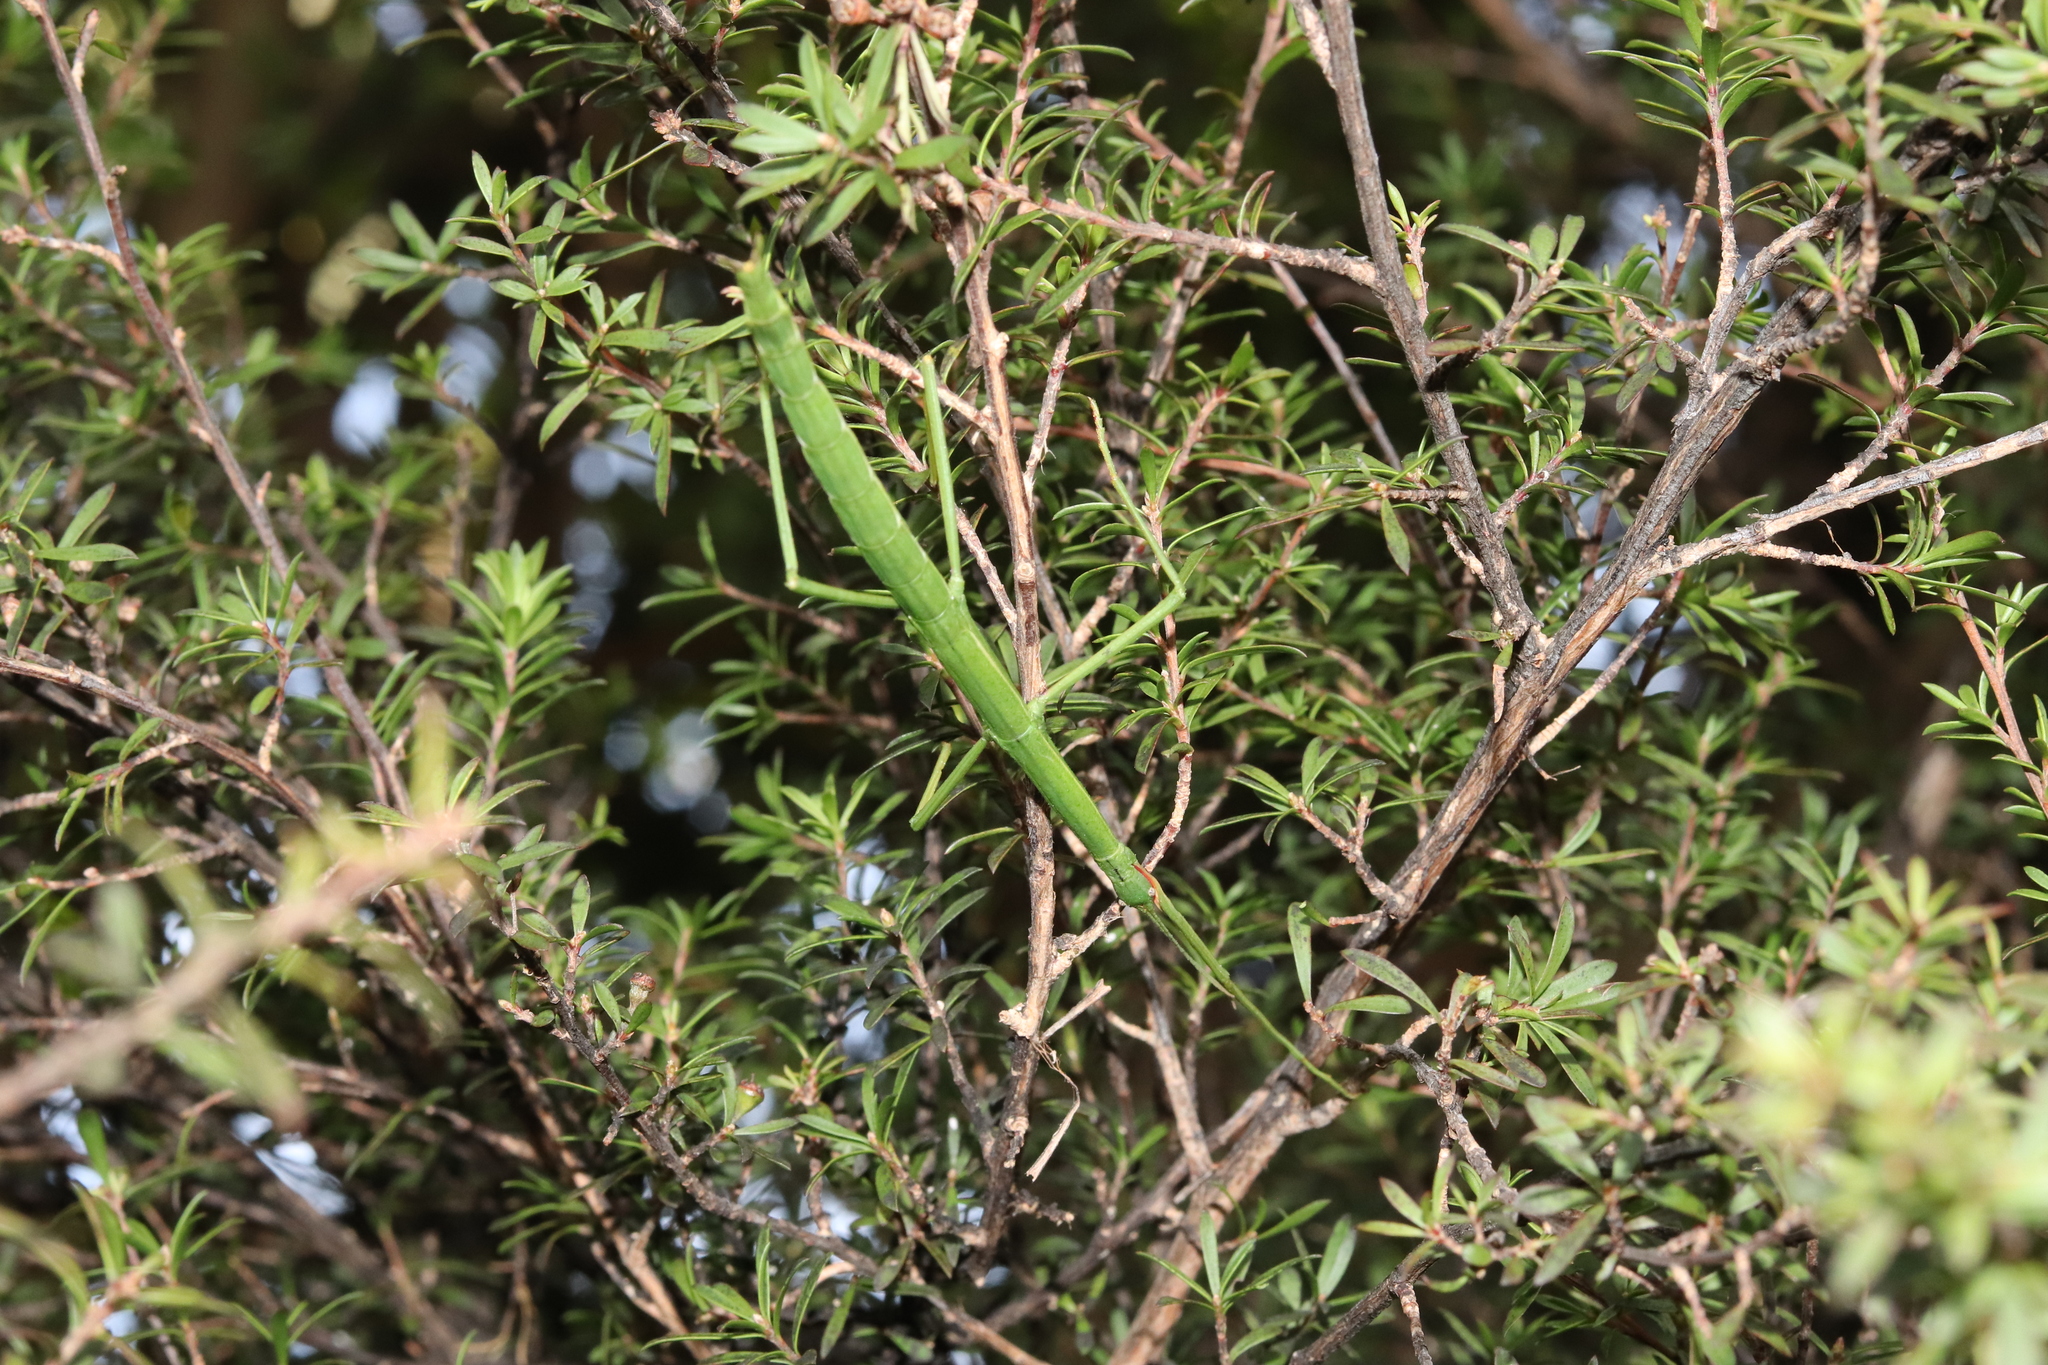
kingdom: Animalia
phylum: Arthropoda
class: Insecta
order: Phasmida
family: Phasmatidae
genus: Clitarchus
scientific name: Clitarchus hookeri
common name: Smooth stick insect
